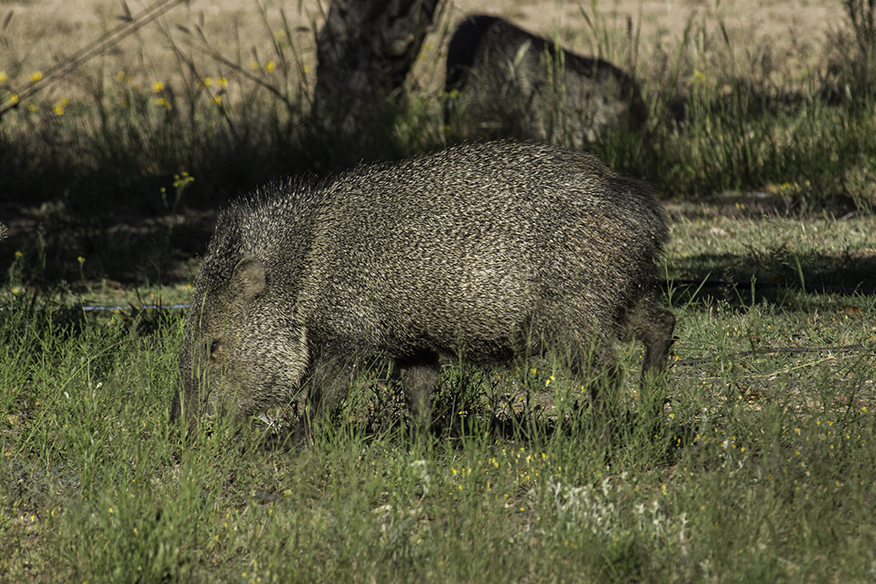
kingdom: Animalia
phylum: Chordata
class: Mammalia
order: Artiodactyla
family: Tayassuidae
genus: Pecari
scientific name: Pecari tajacu
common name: Collared peccary
